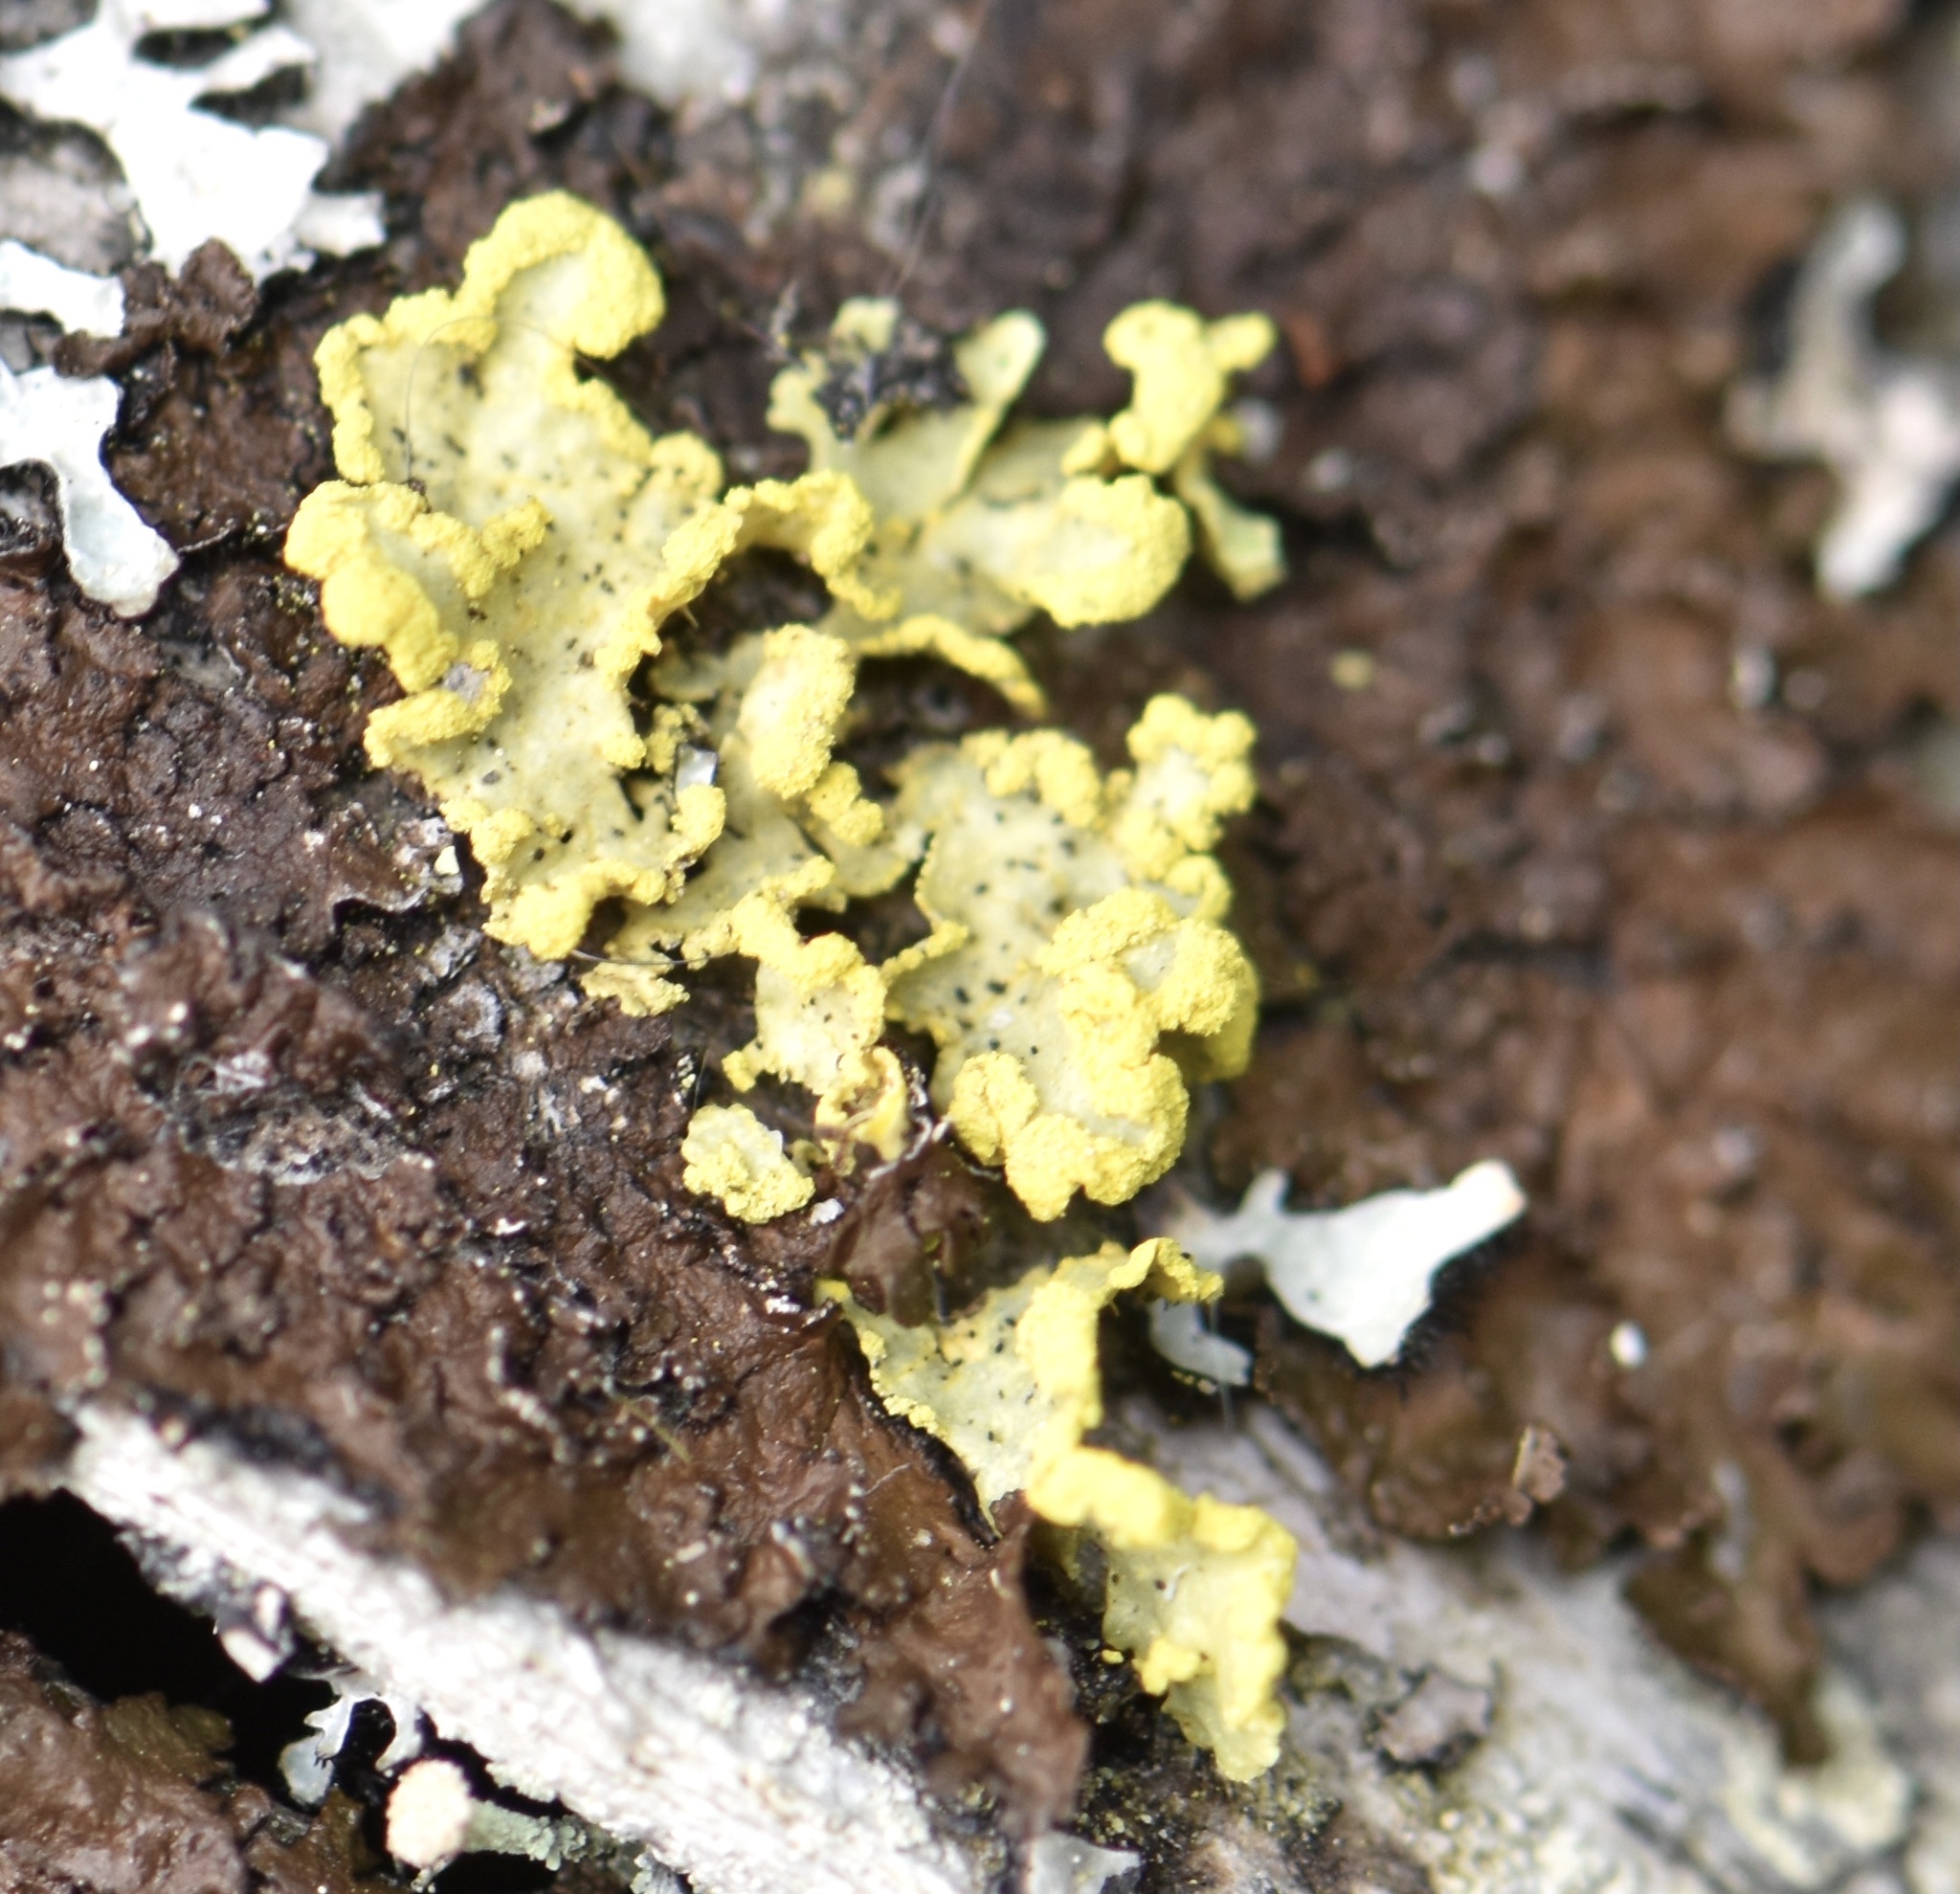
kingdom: Fungi
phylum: Ascomycota
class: Lecanoromycetes
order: Lecanorales
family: Parmeliaceae
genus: Vulpicida
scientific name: Vulpicida pinastri
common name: Powdered sunshine lichen
